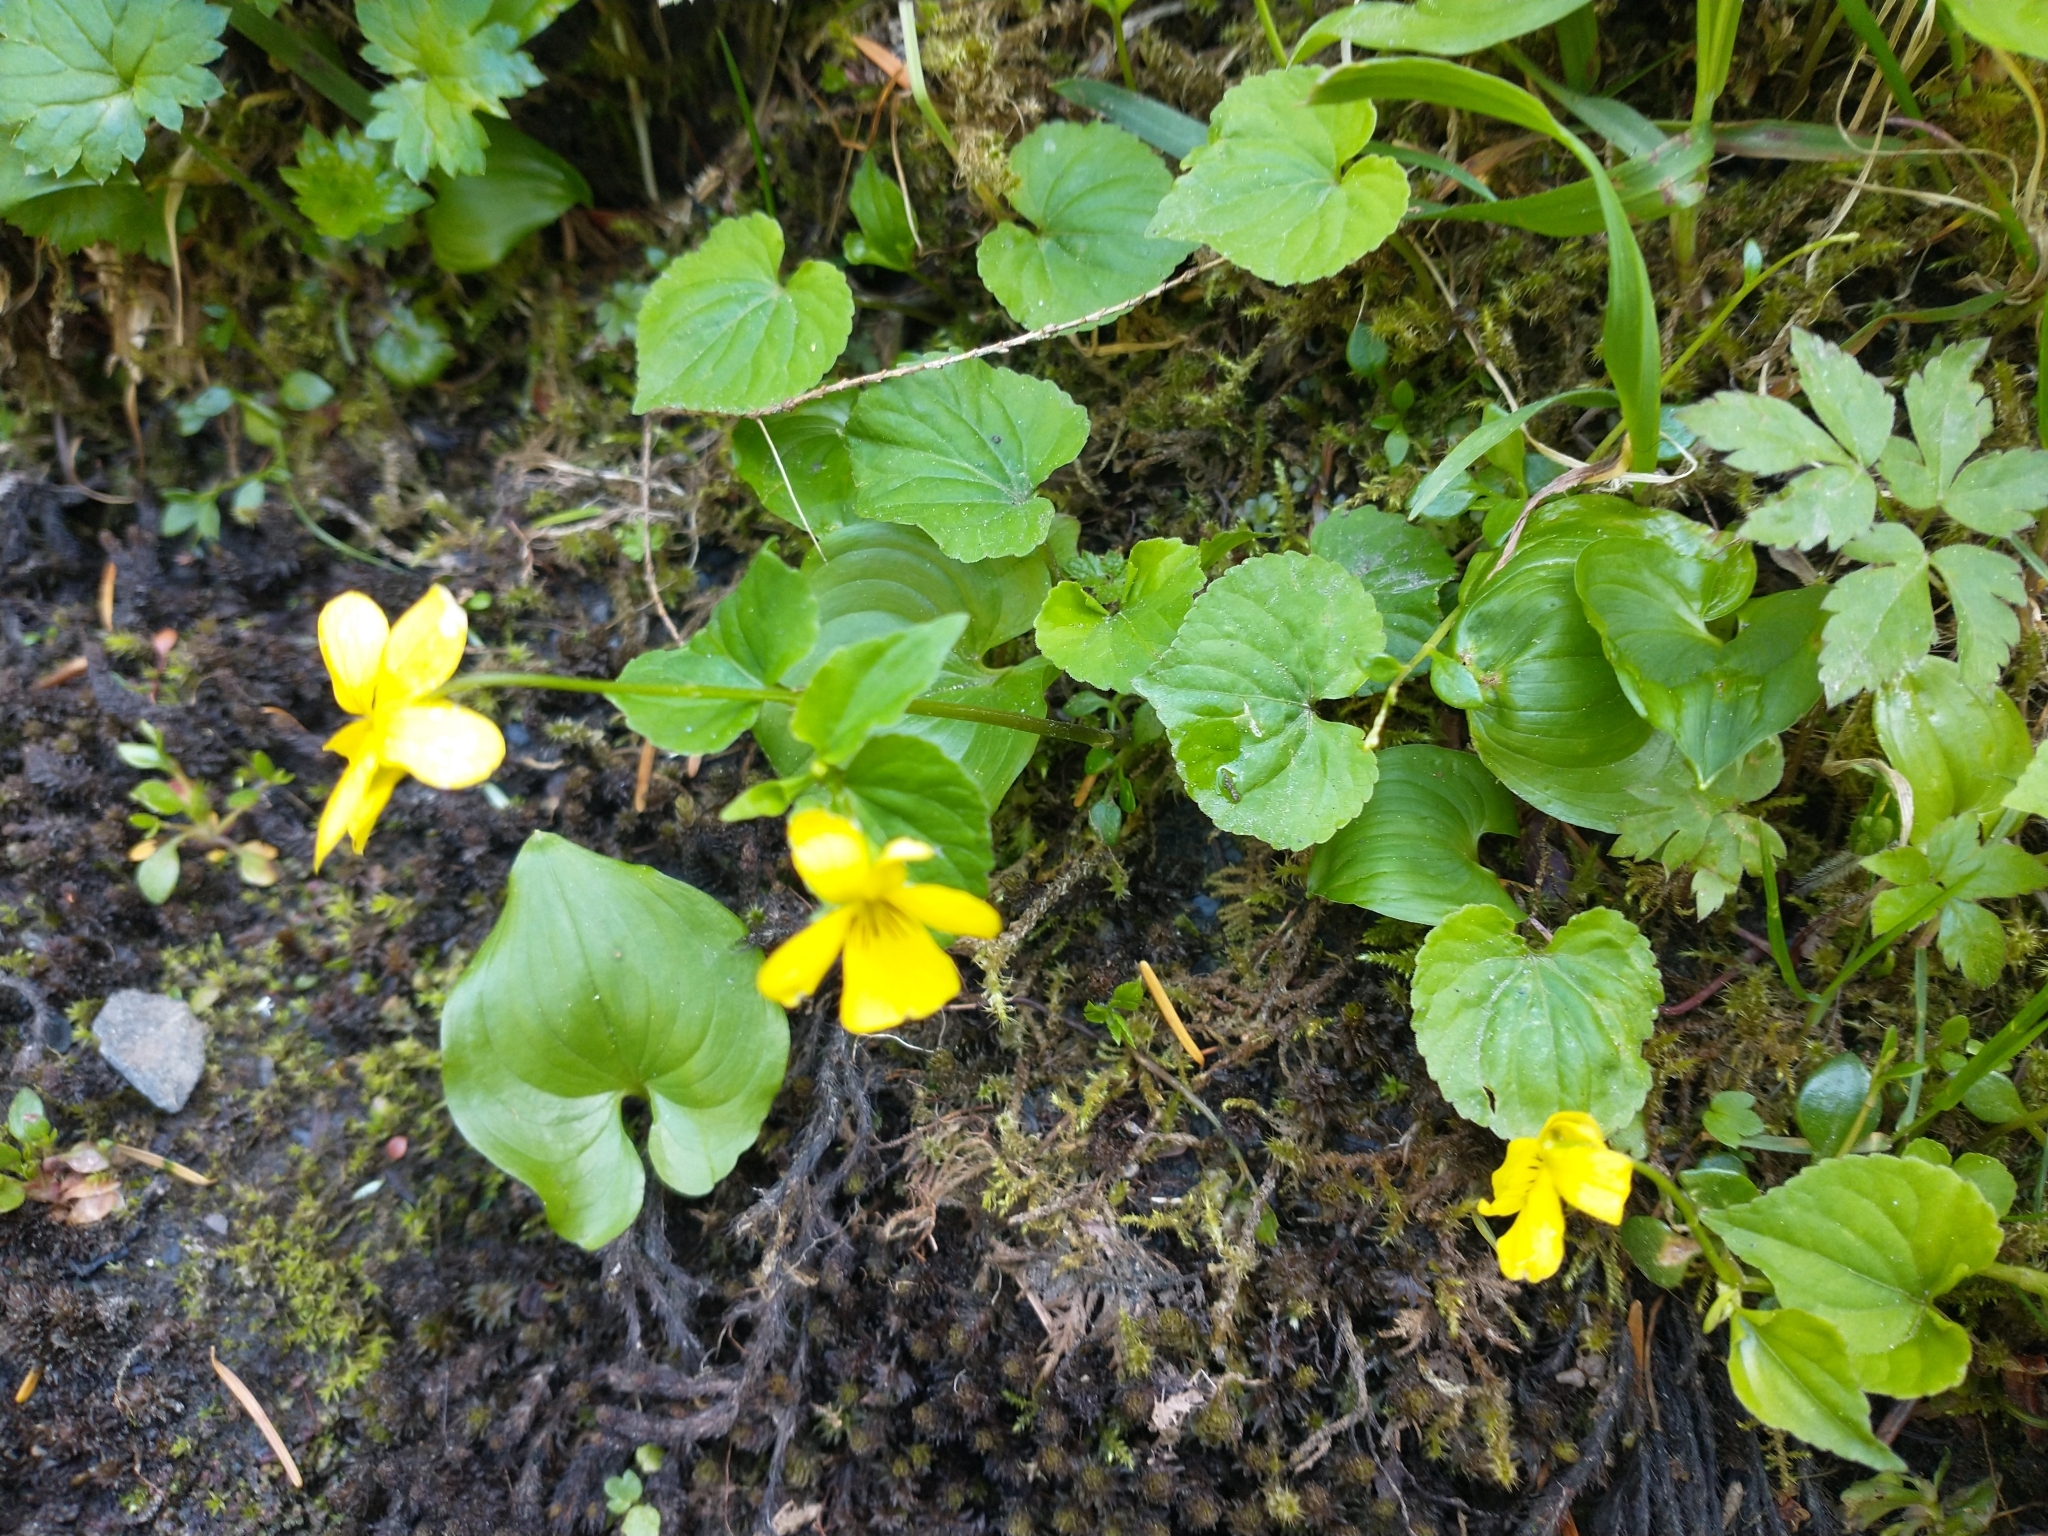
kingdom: Plantae
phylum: Tracheophyta
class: Magnoliopsida
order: Malpighiales
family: Violaceae
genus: Viola
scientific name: Viola glabella
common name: Stream violet
